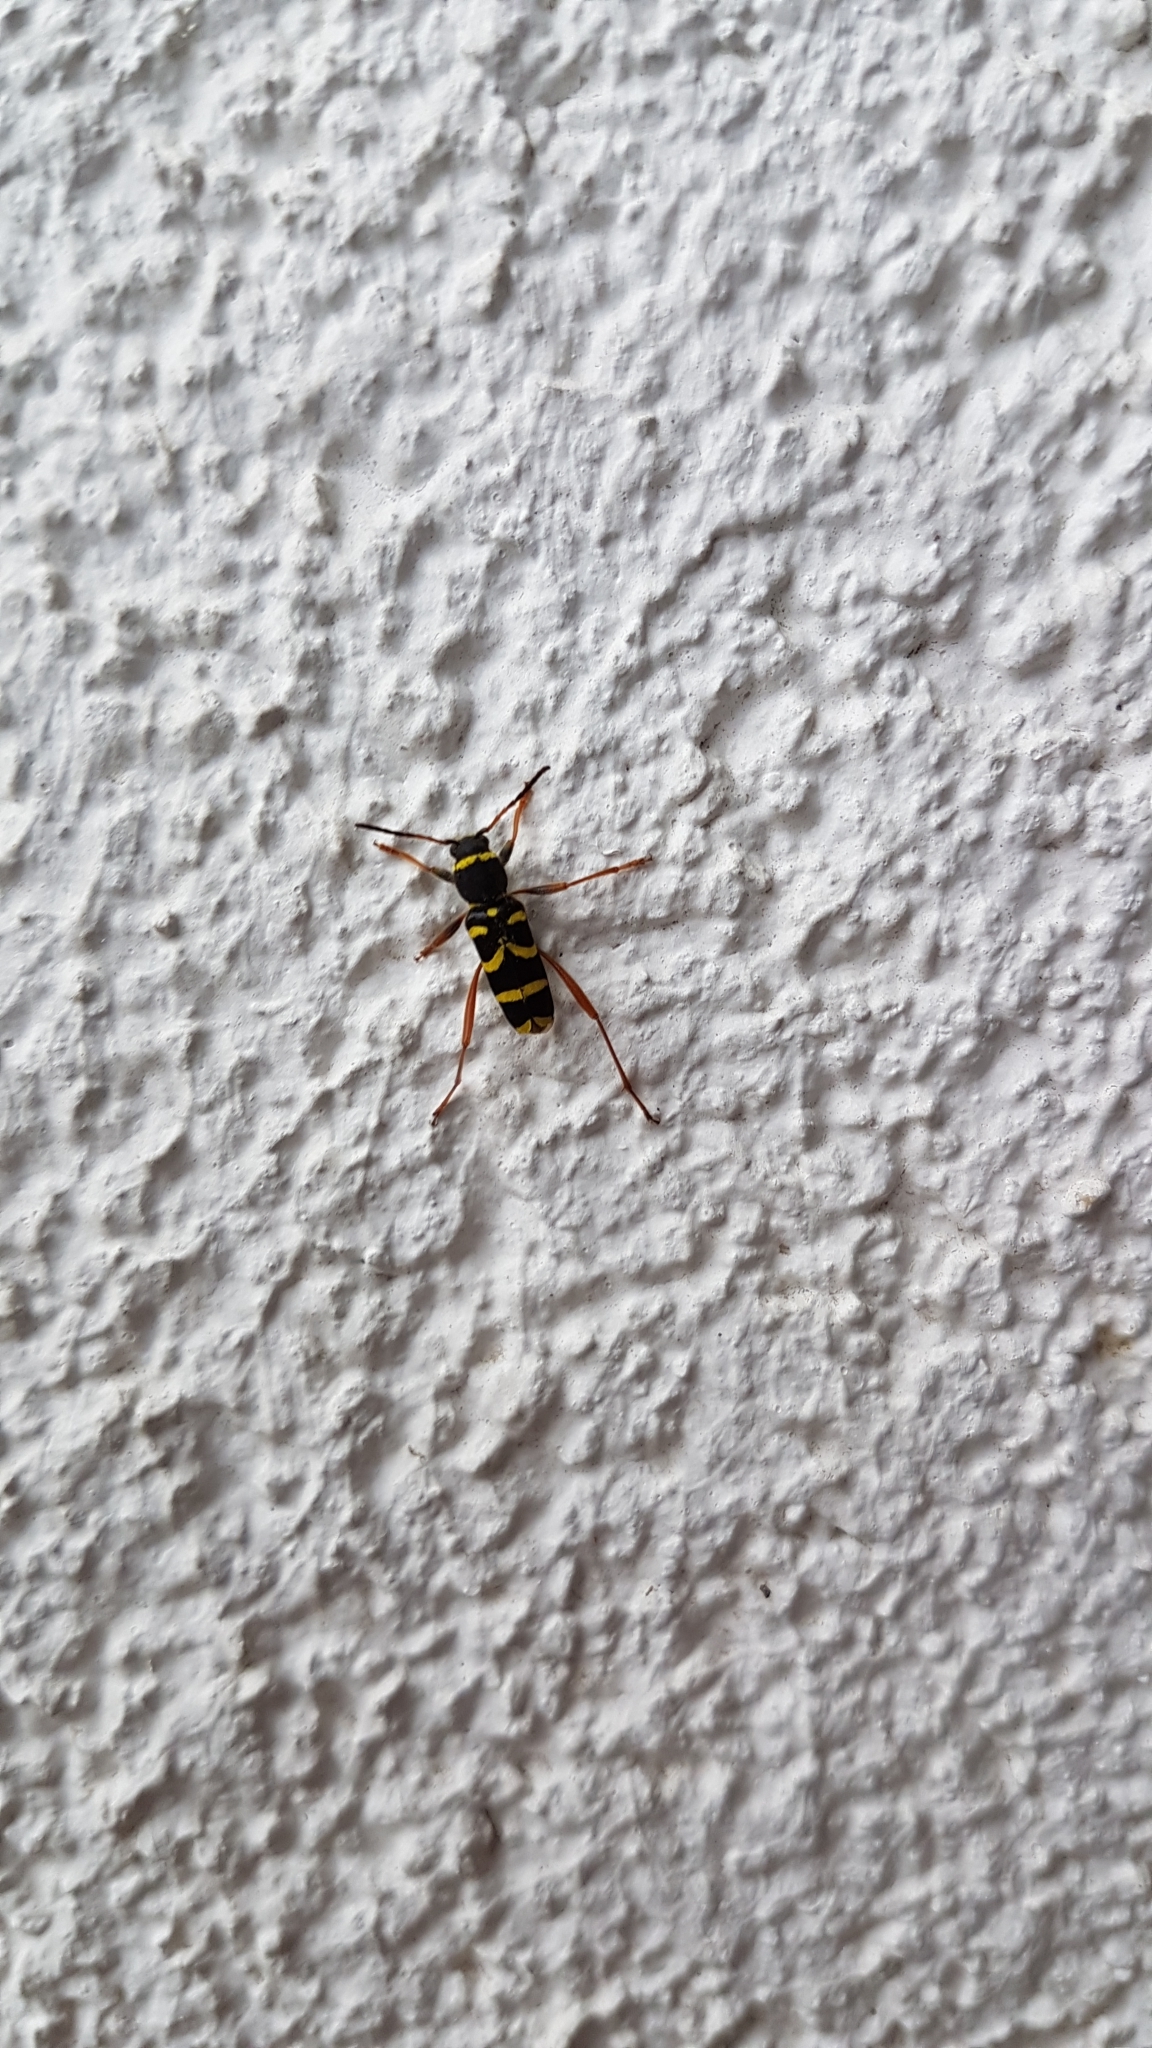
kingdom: Animalia
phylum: Arthropoda
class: Insecta
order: Coleoptera
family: Cerambycidae
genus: Clytus
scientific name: Clytus arietis
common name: Wasp beetle
